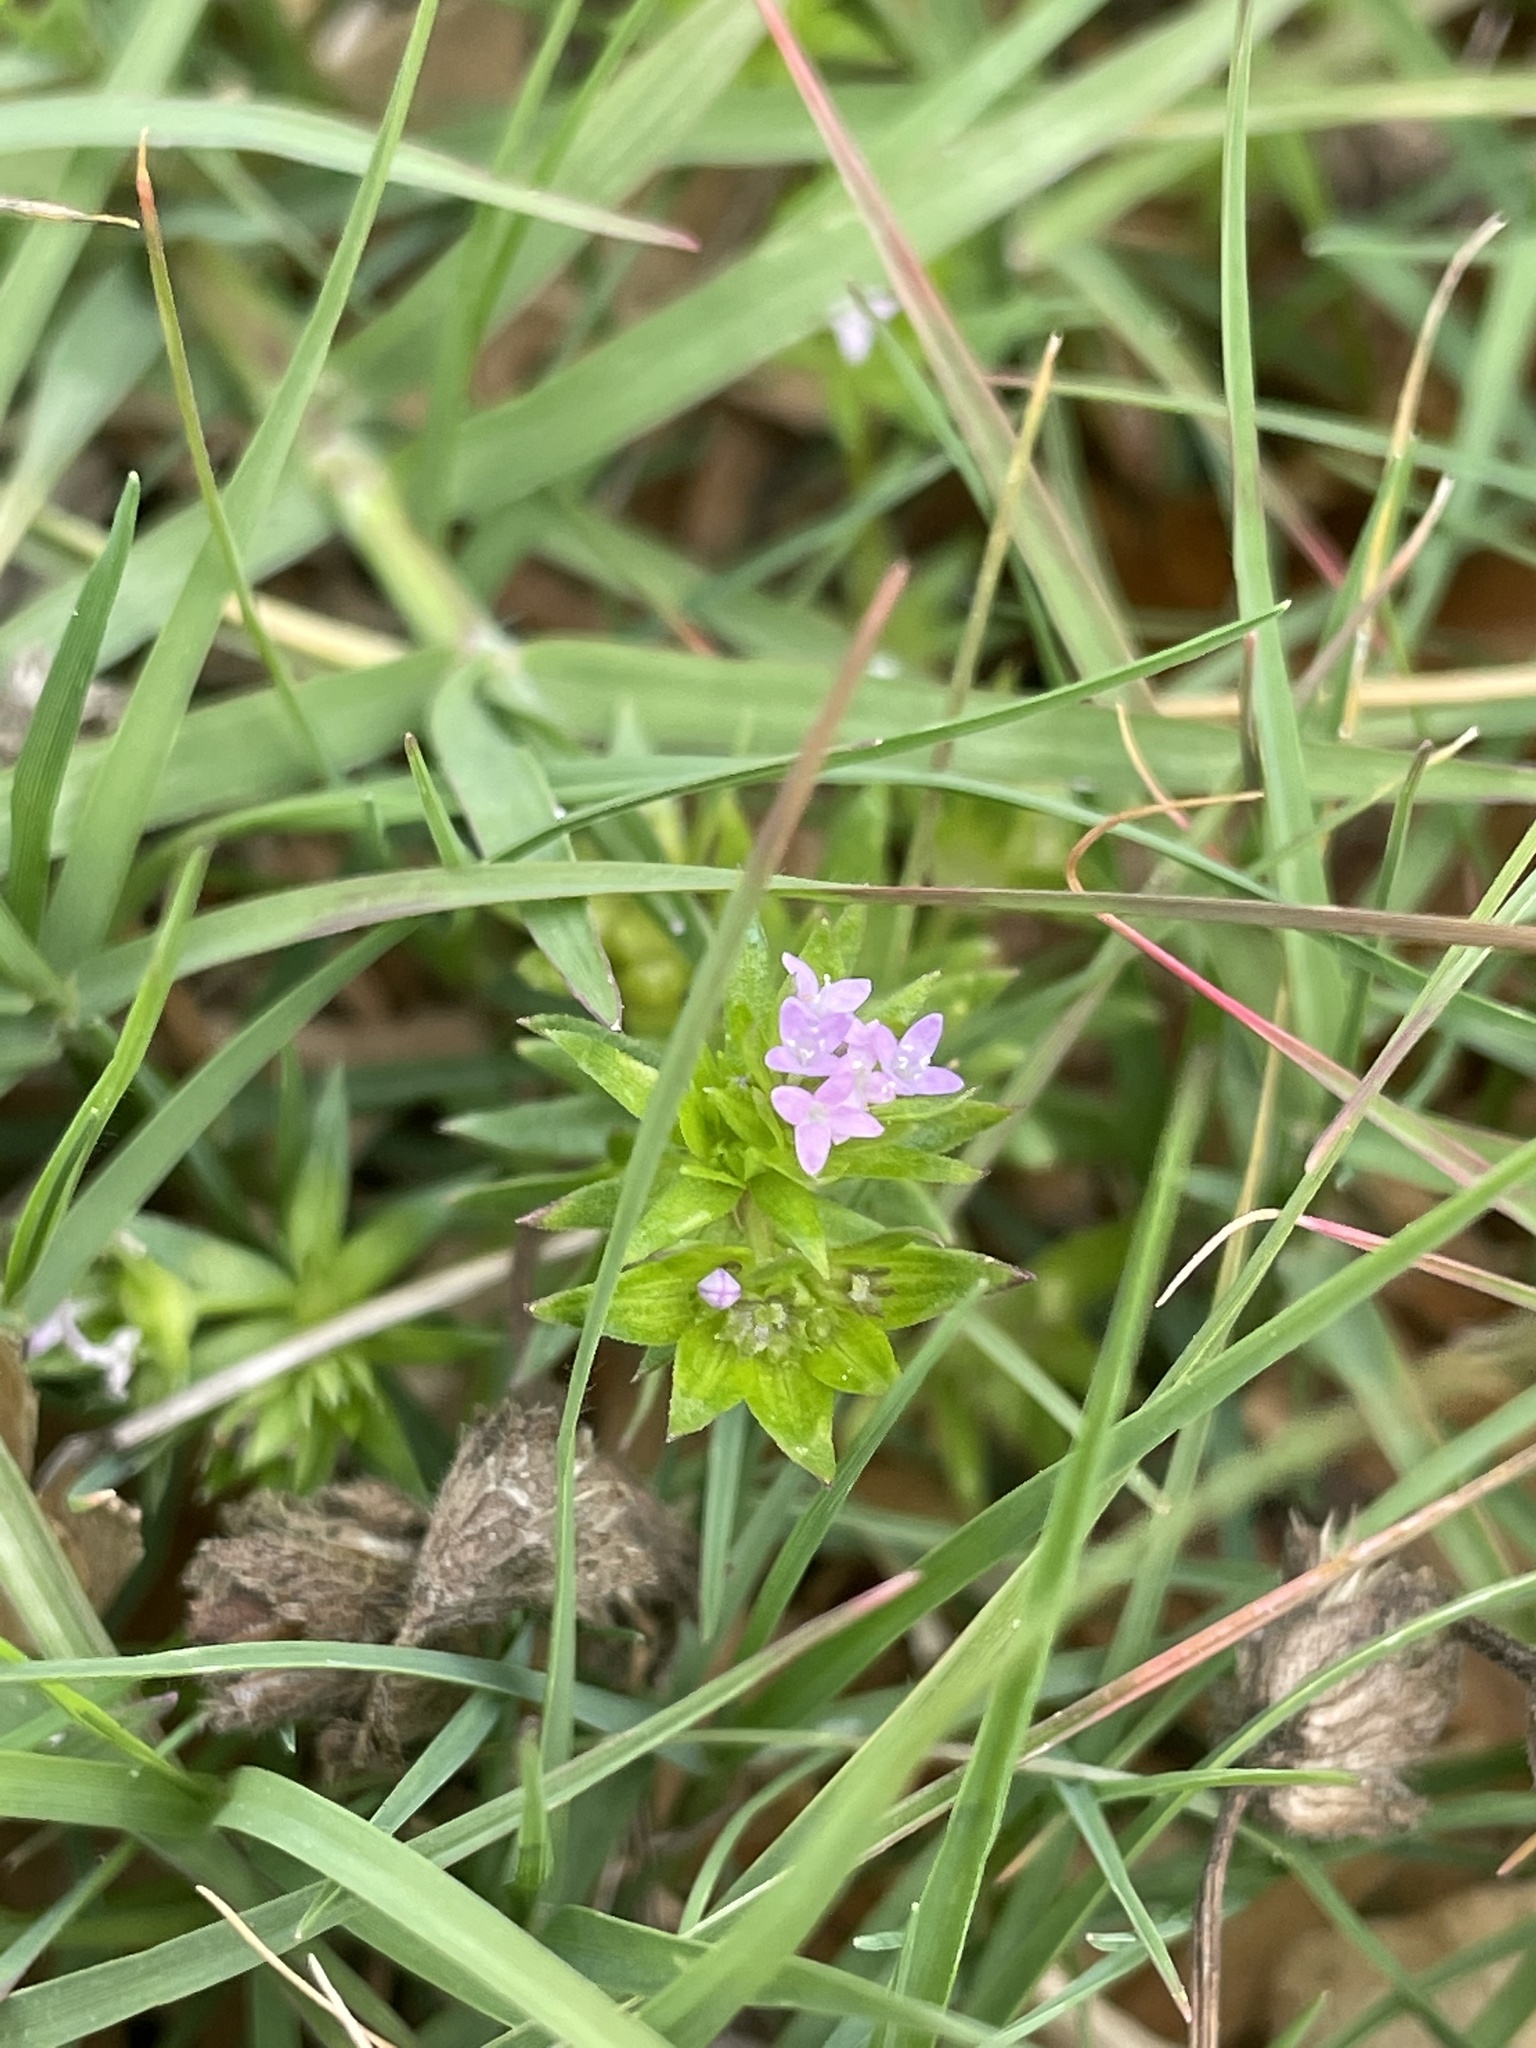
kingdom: Plantae
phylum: Tracheophyta
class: Magnoliopsida
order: Gentianales
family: Rubiaceae
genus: Sherardia
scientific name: Sherardia arvensis
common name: Field madder
